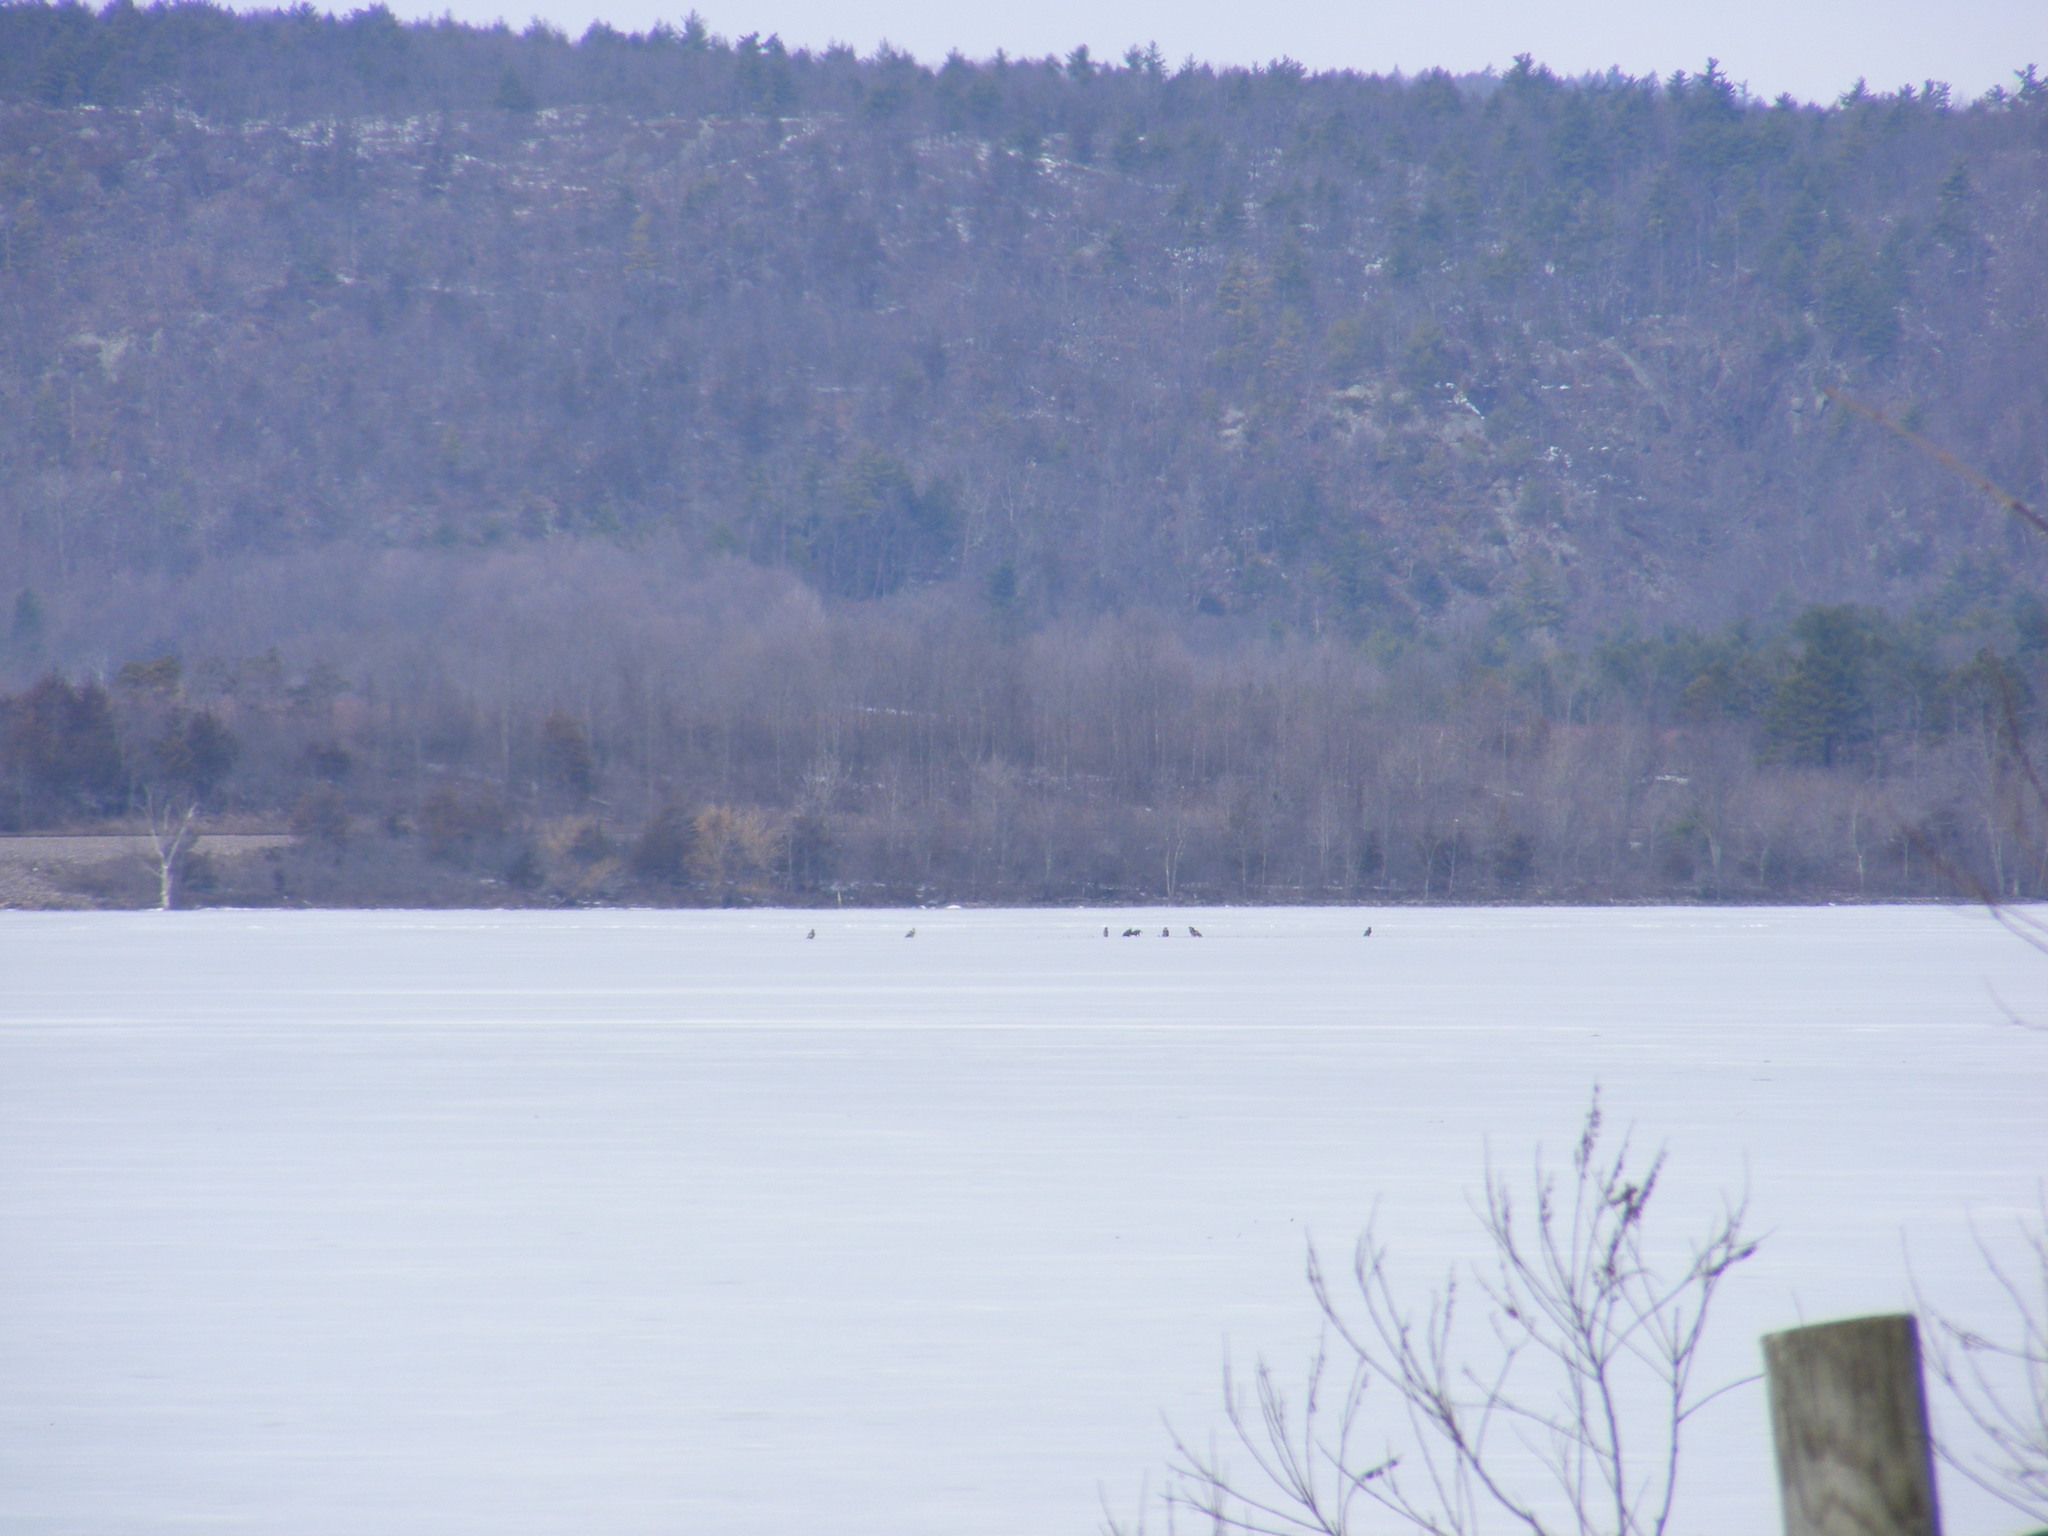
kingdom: Animalia
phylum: Chordata
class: Aves
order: Accipitriformes
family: Accipitridae
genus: Haliaeetus
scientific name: Haliaeetus leucocephalus
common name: Bald eagle
